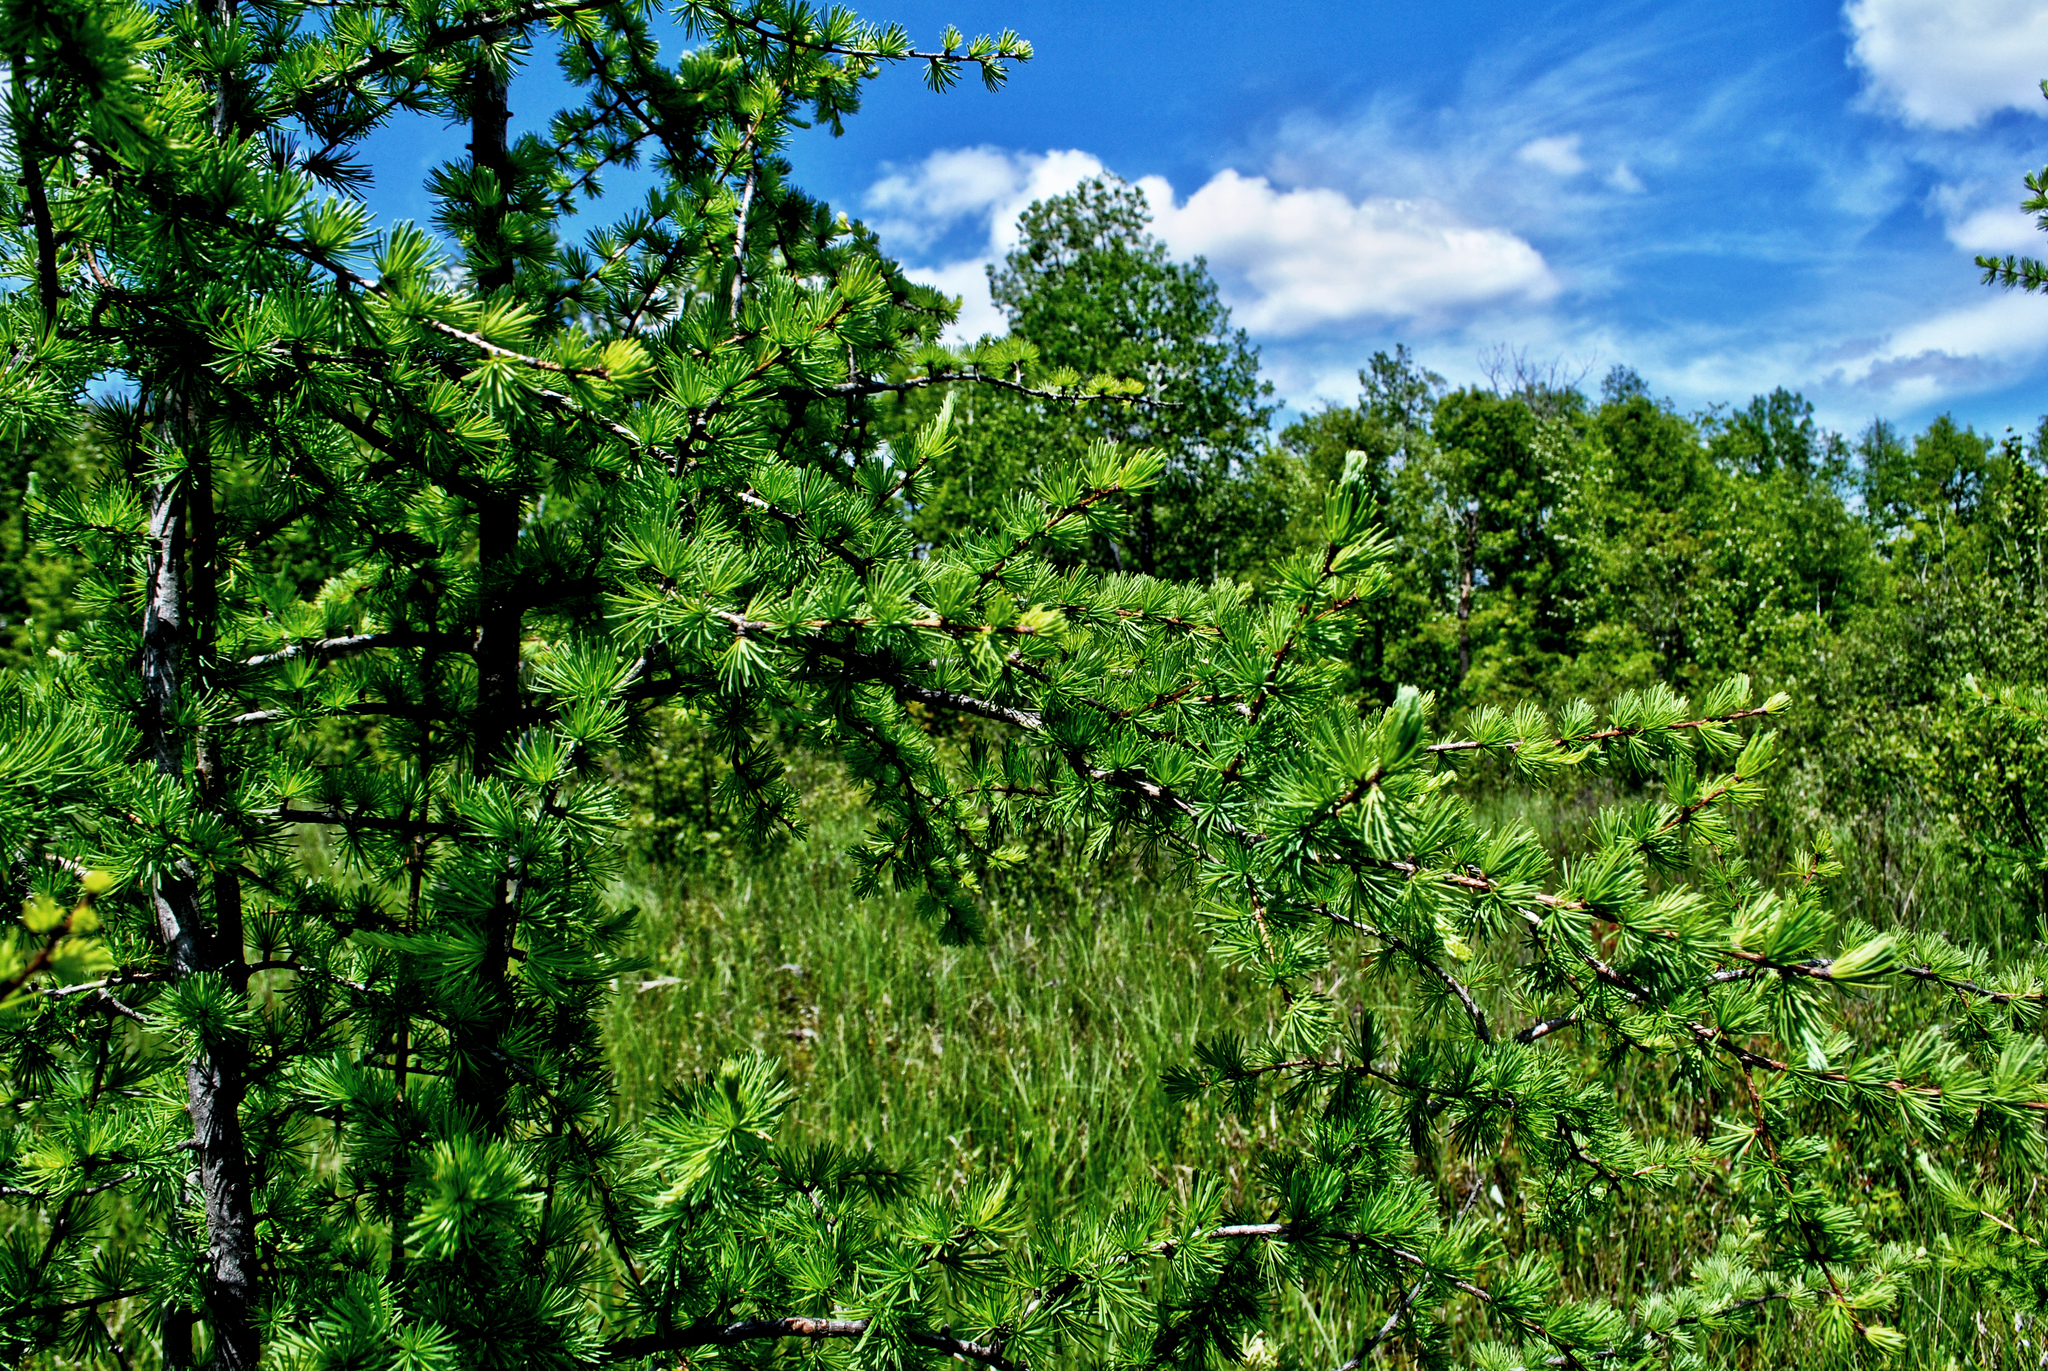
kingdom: Plantae
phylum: Tracheophyta
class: Pinopsida
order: Pinales
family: Pinaceae
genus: Larix
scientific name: Larix laricina
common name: American larch
